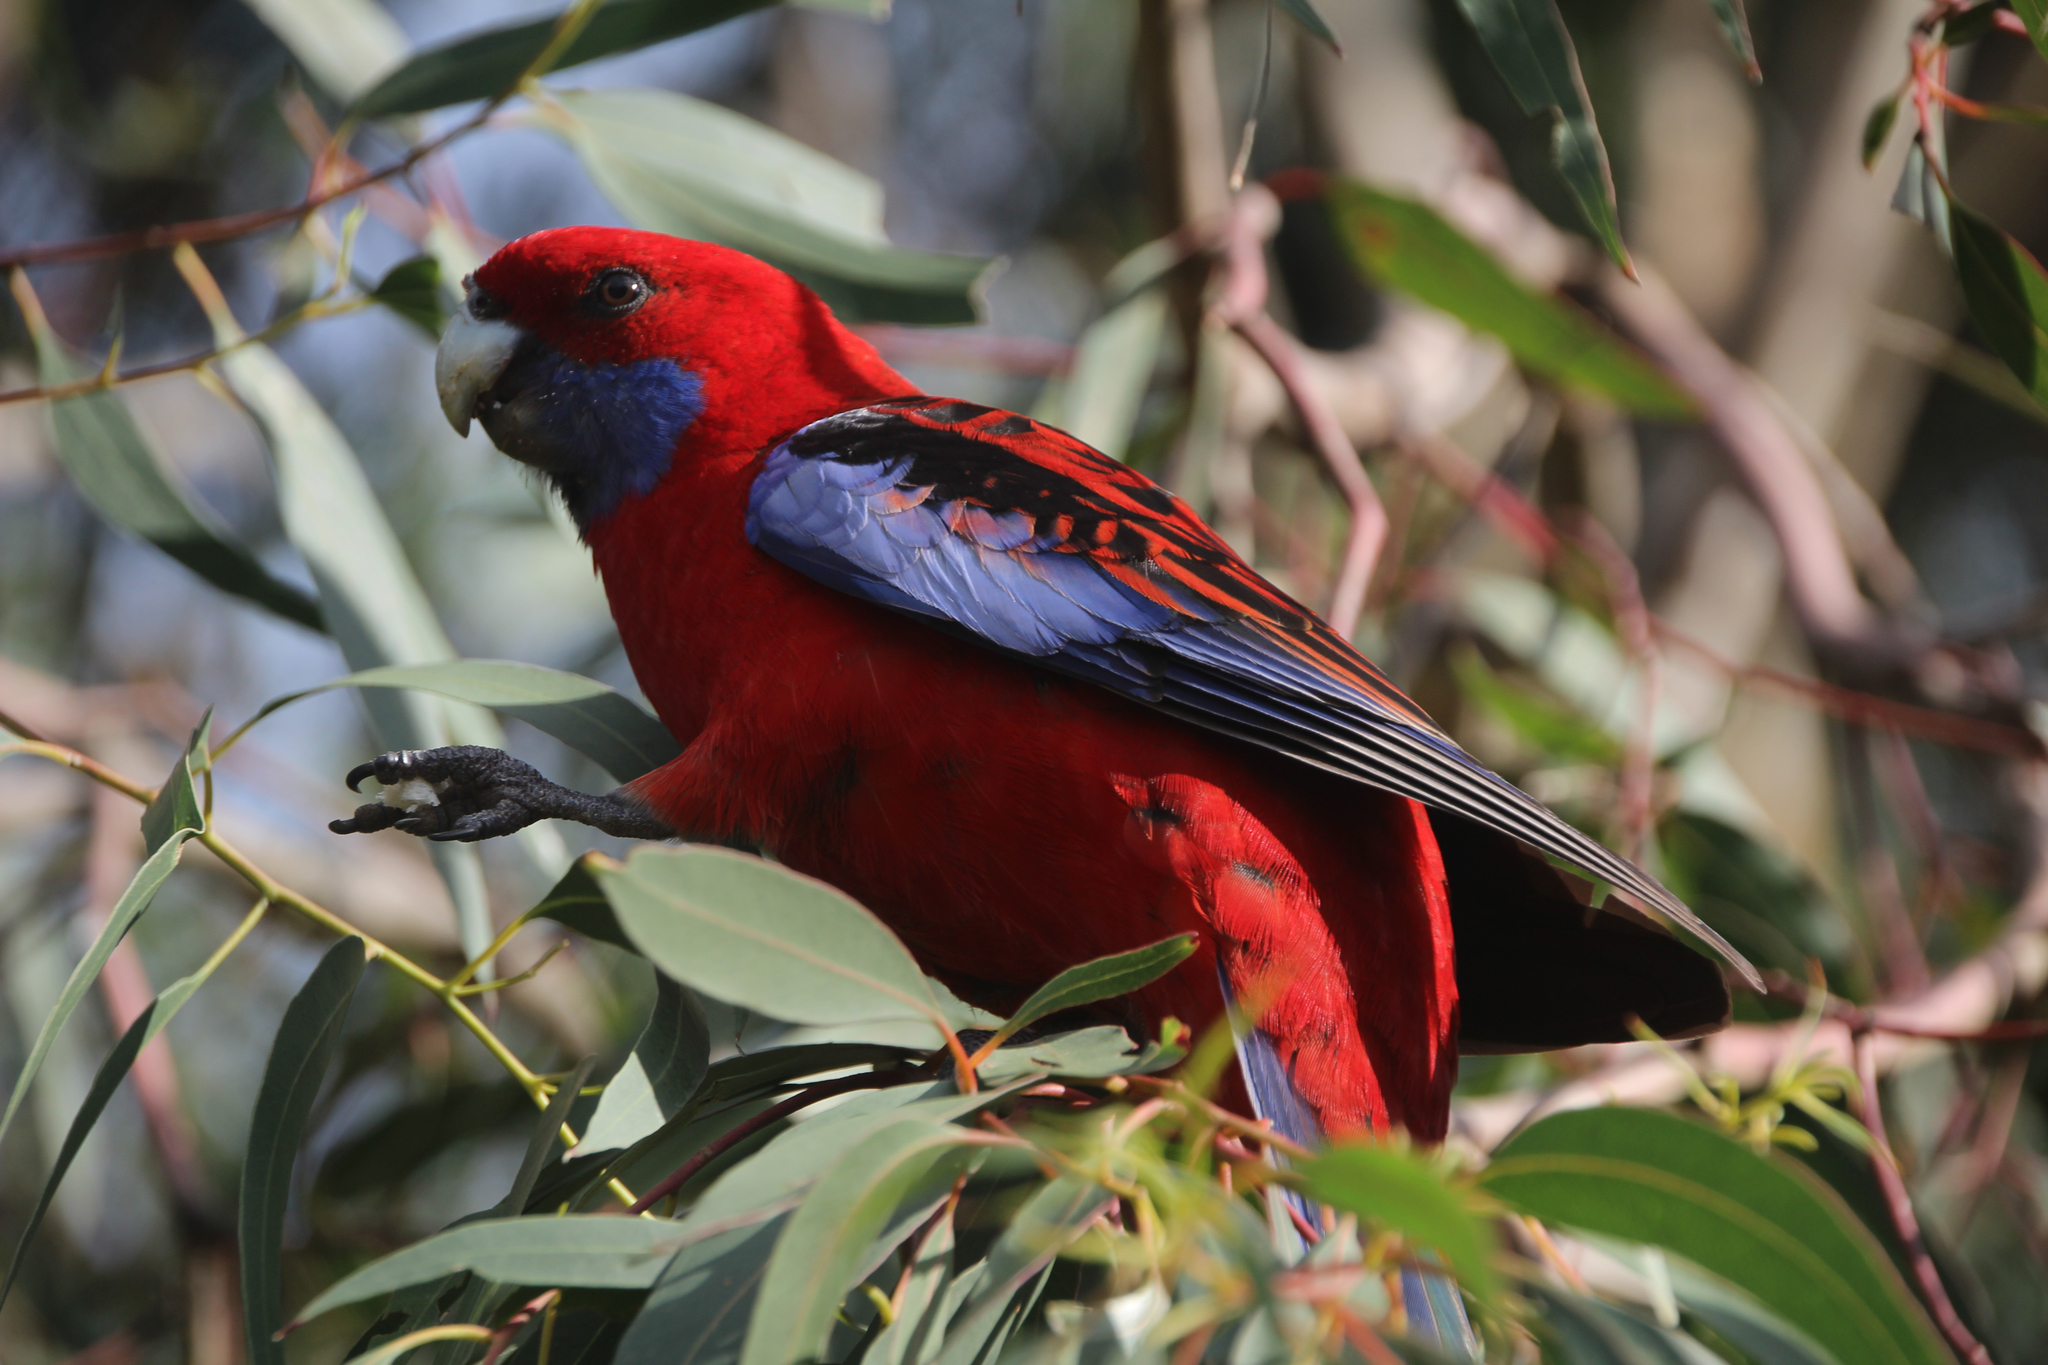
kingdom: Animalia
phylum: Chordata
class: Aves
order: Psittaciformes
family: Psittacidae
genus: Platycercus
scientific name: Platycercus elegans
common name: Crimson rosella
